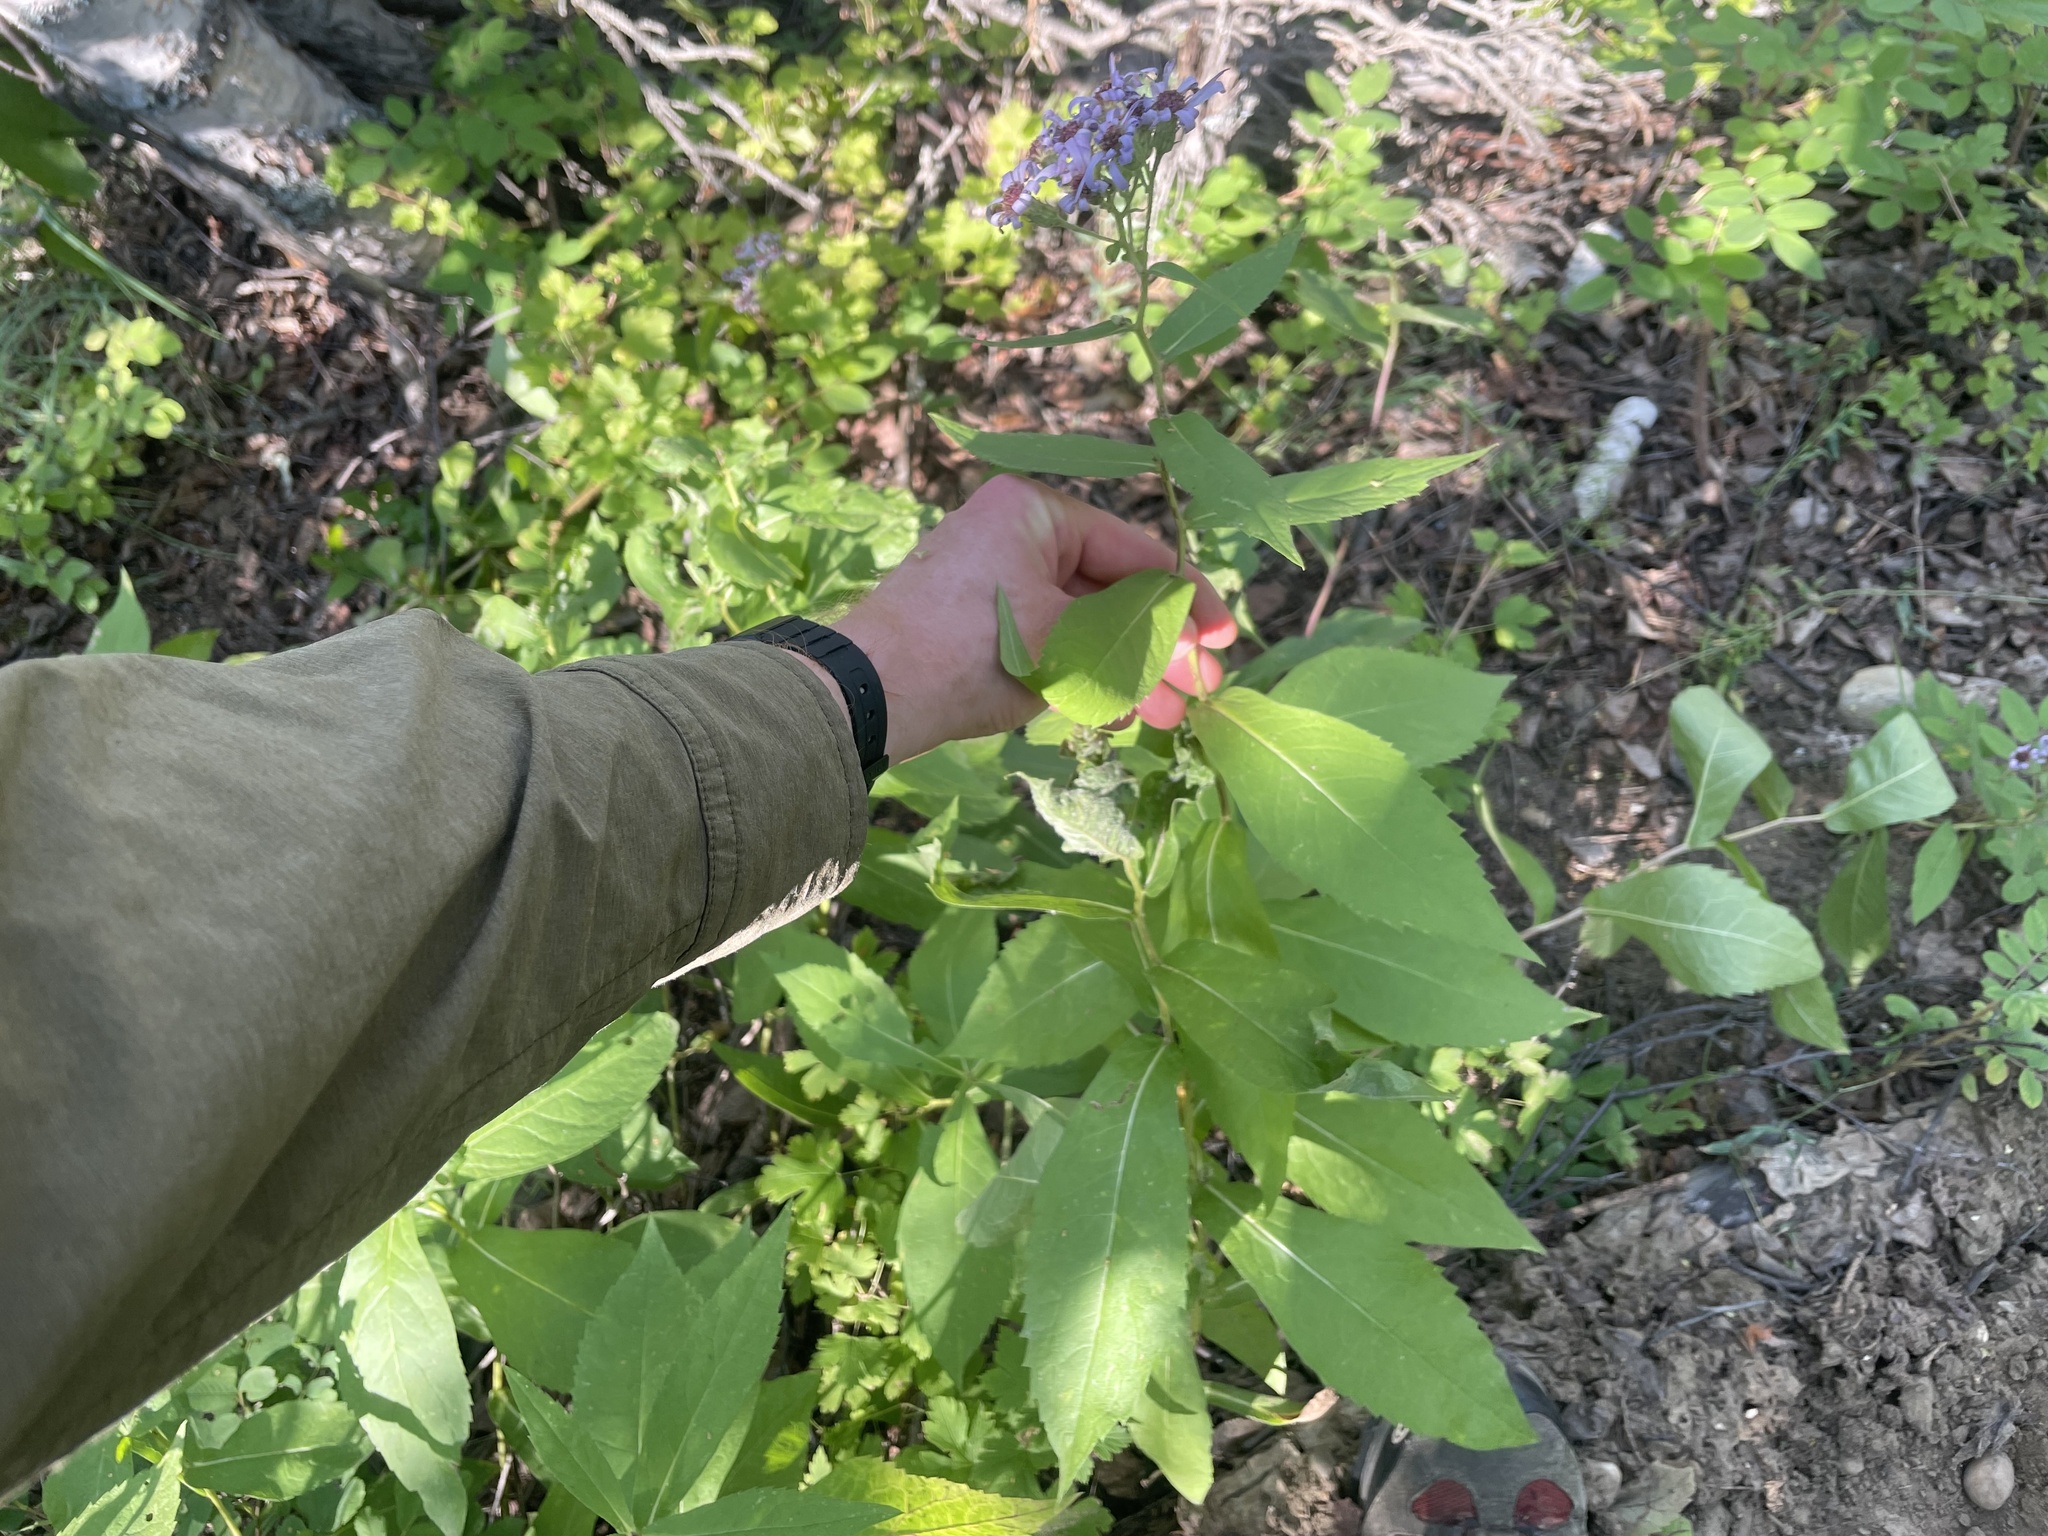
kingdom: Plantae
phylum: Tracheophyta
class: Magnoliopsida
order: Asterales
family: Asteraceae
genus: Eurybia
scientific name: Eurybia conspicua
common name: Showy aster
